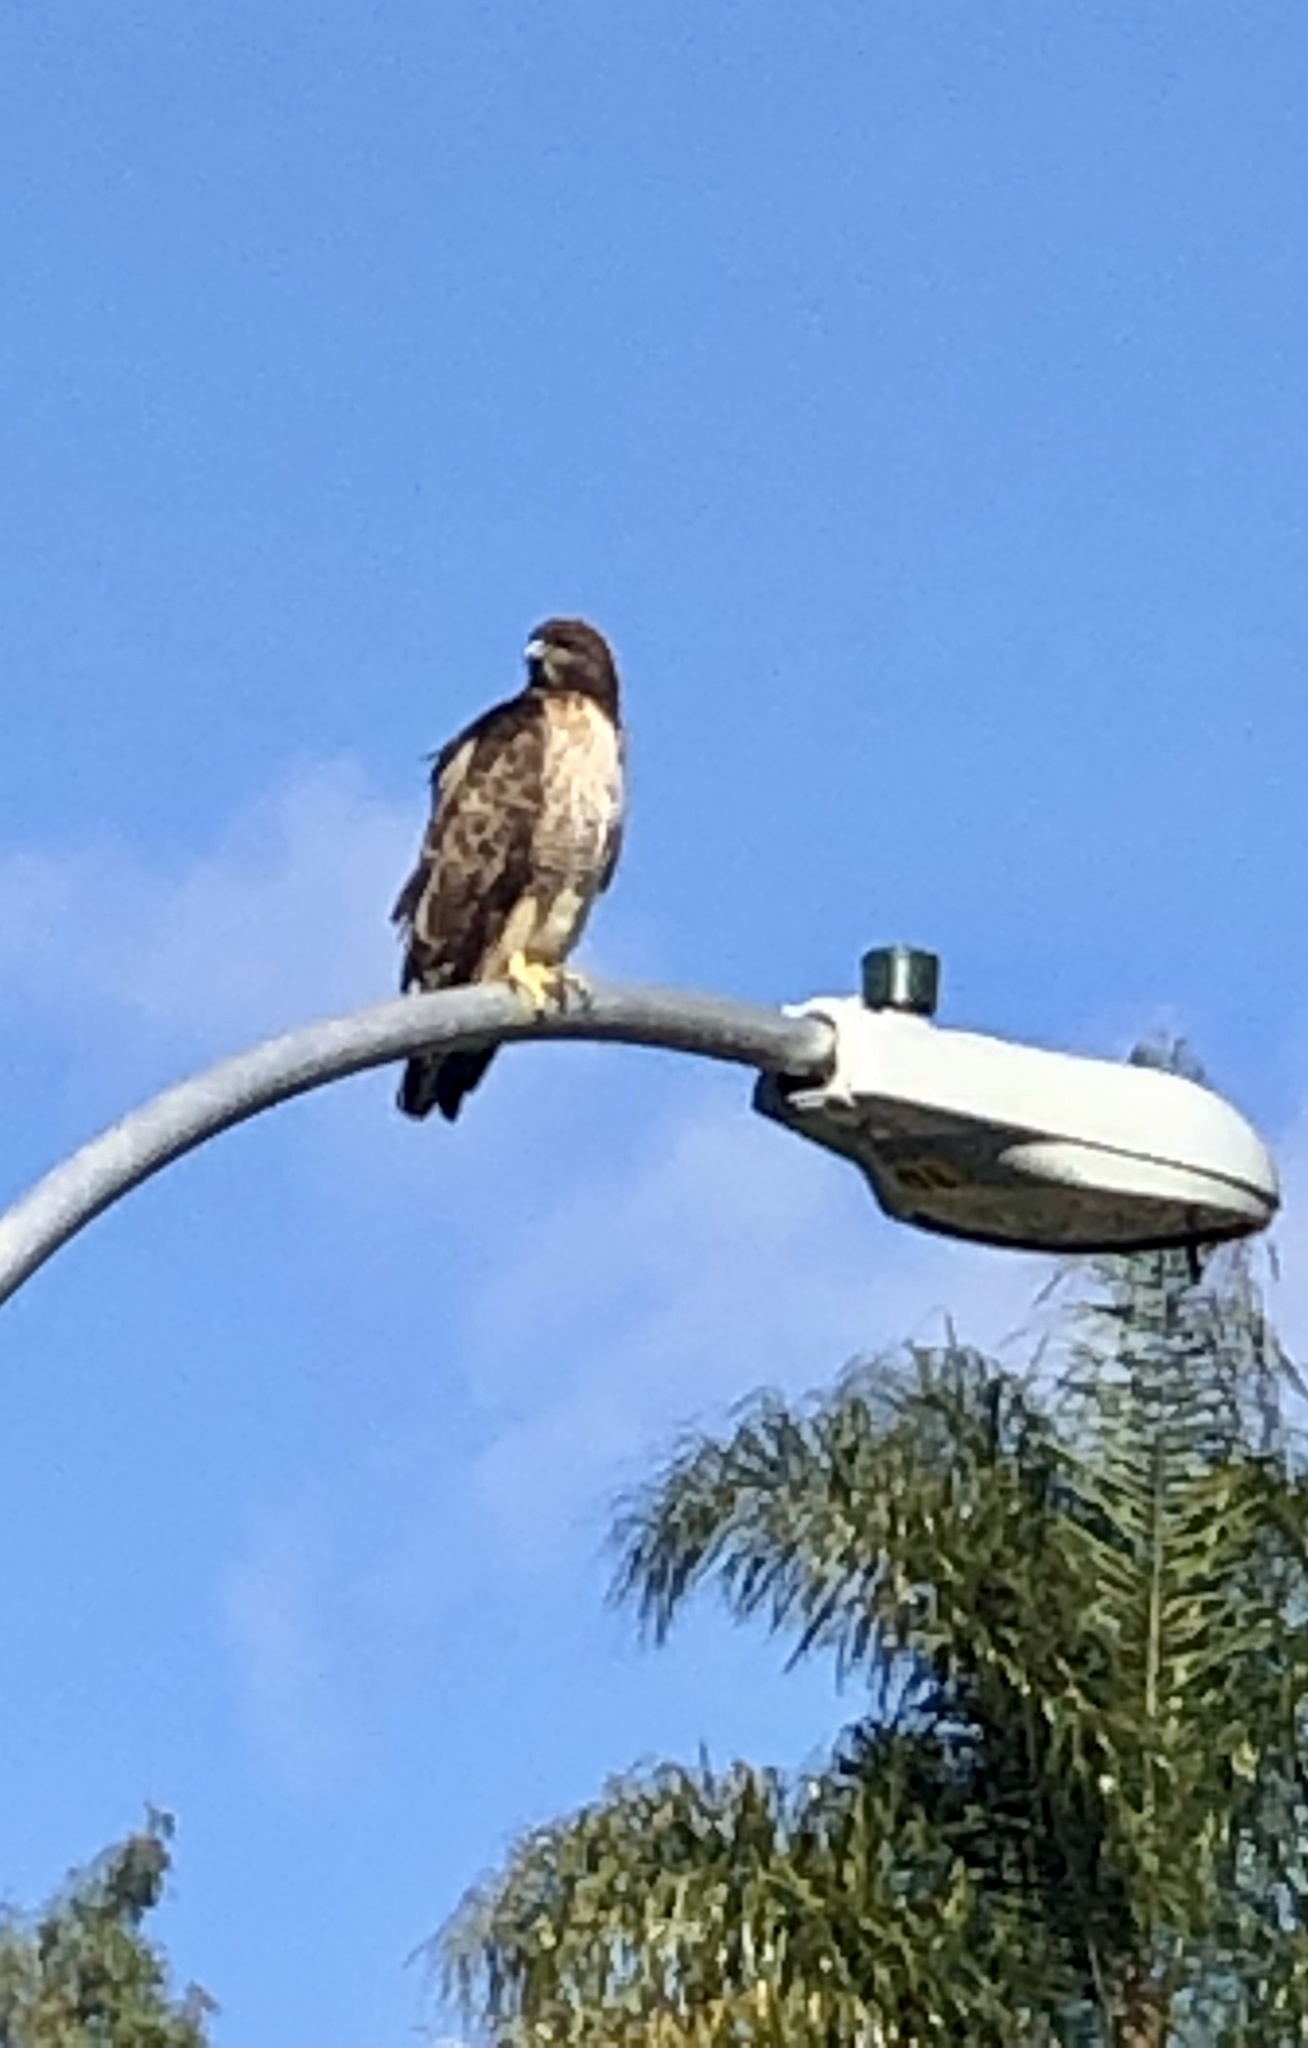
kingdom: Animalia
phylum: Chordata
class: Aves
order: Accipitriformes
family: Accipitridae
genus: Buteo
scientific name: Buteo jamaicensis
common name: Red-tailed hawk
